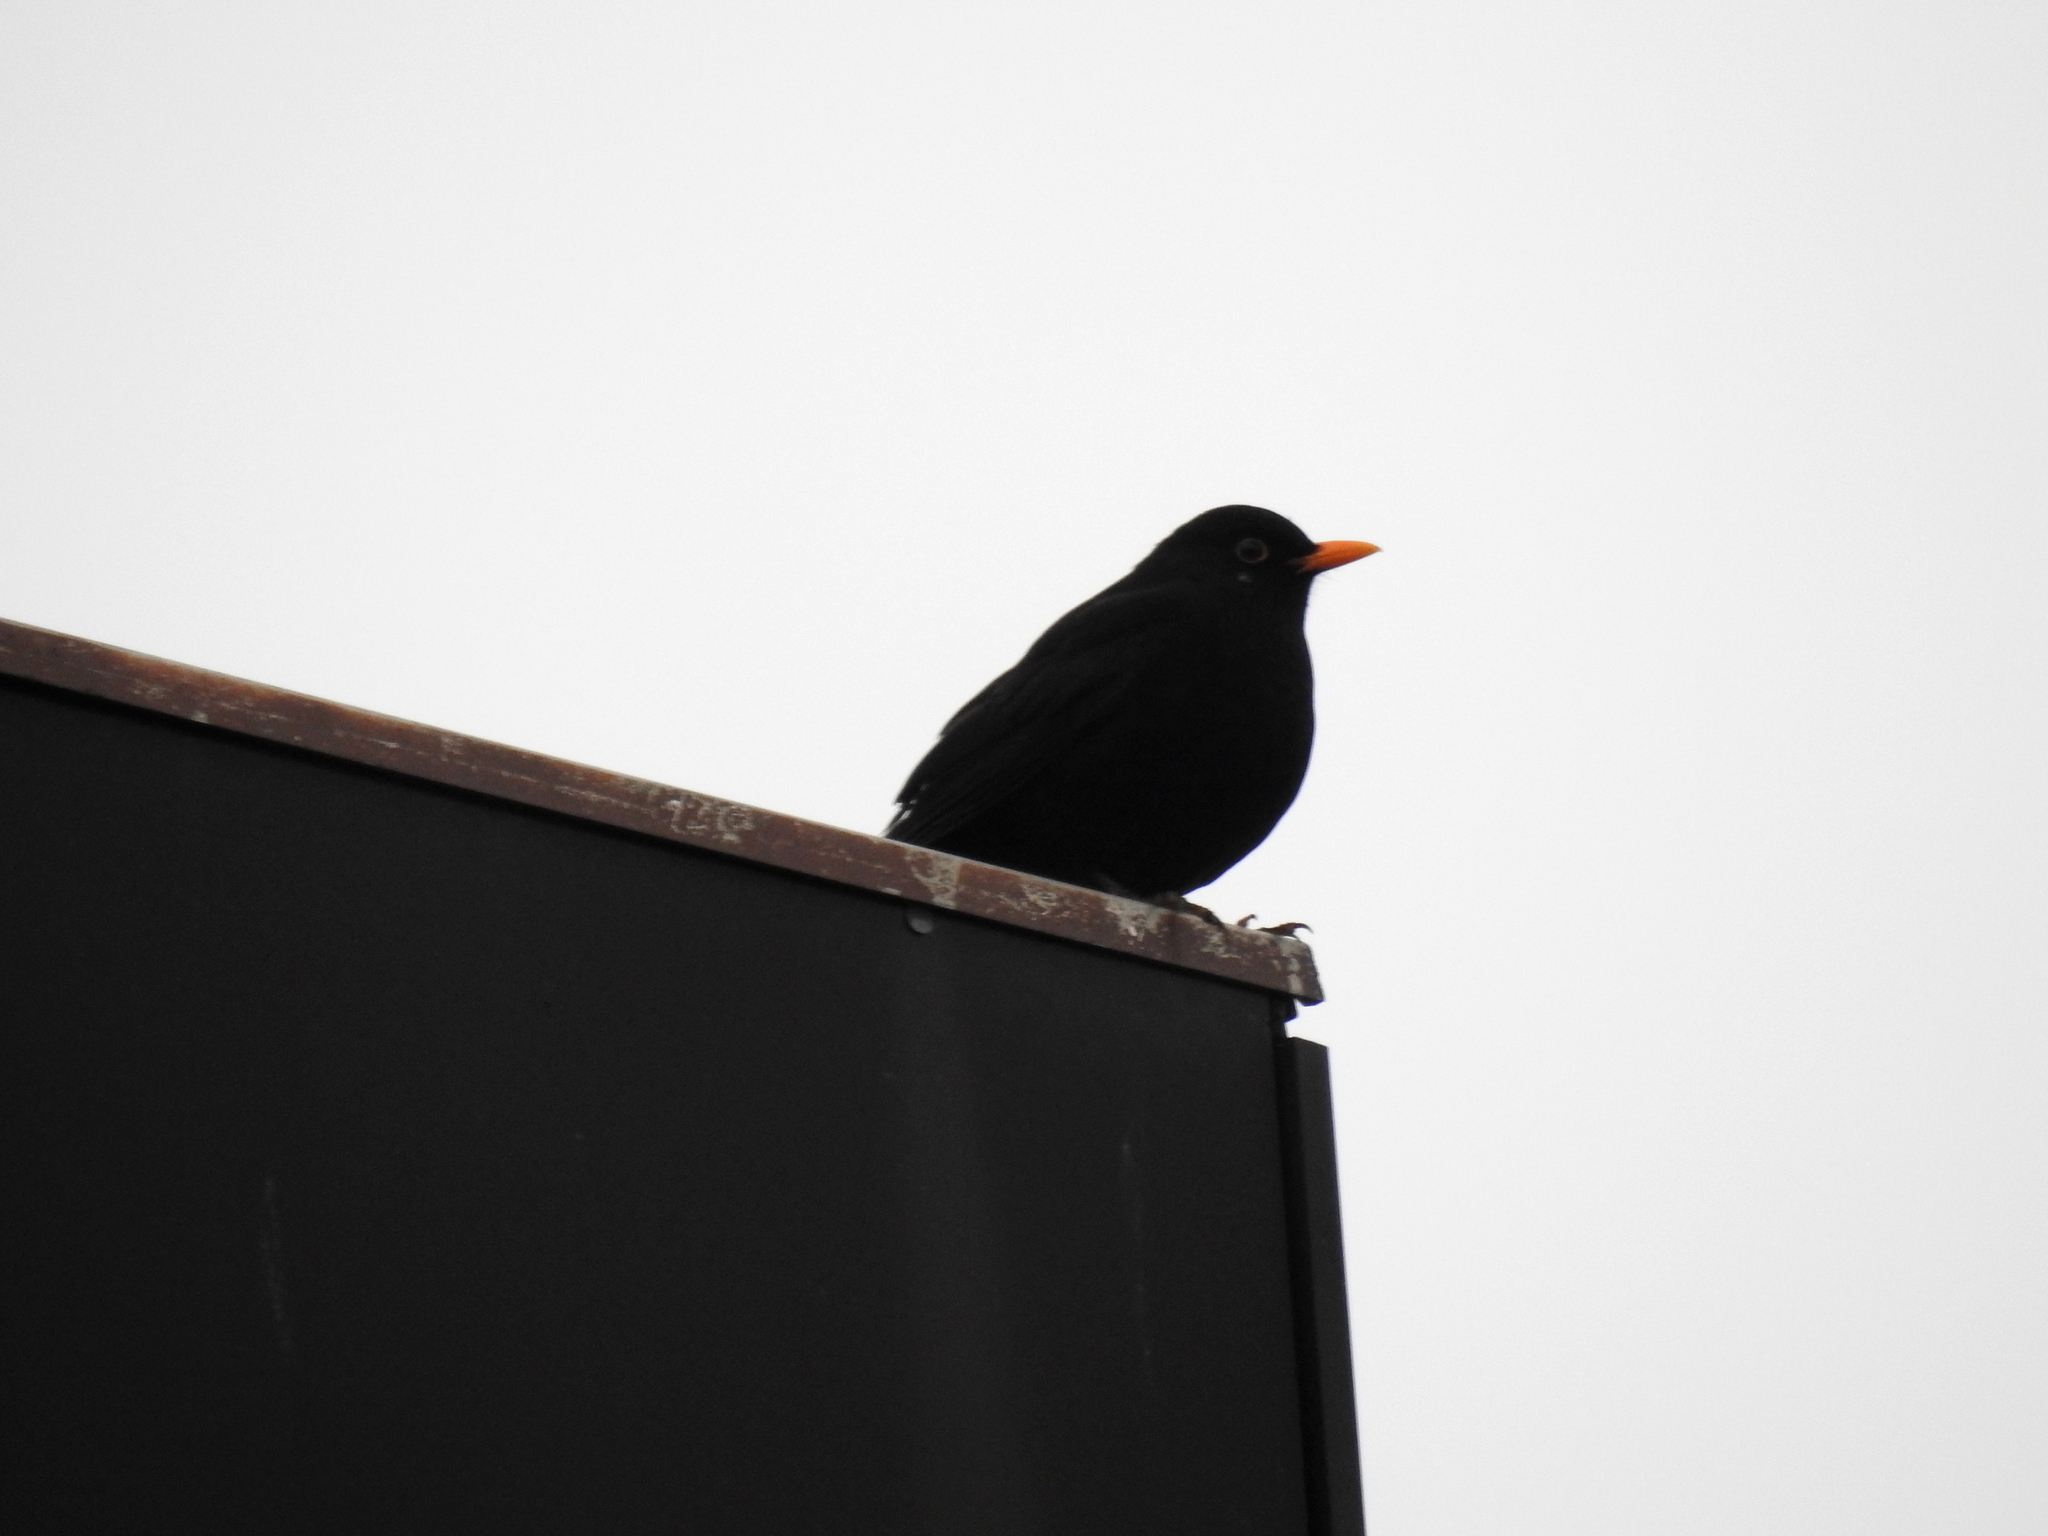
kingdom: Animalia
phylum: Chordata
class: Aves
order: Passeriformes
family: Turdidae
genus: Turdus
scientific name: Turdus merula
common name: Common blackbird
